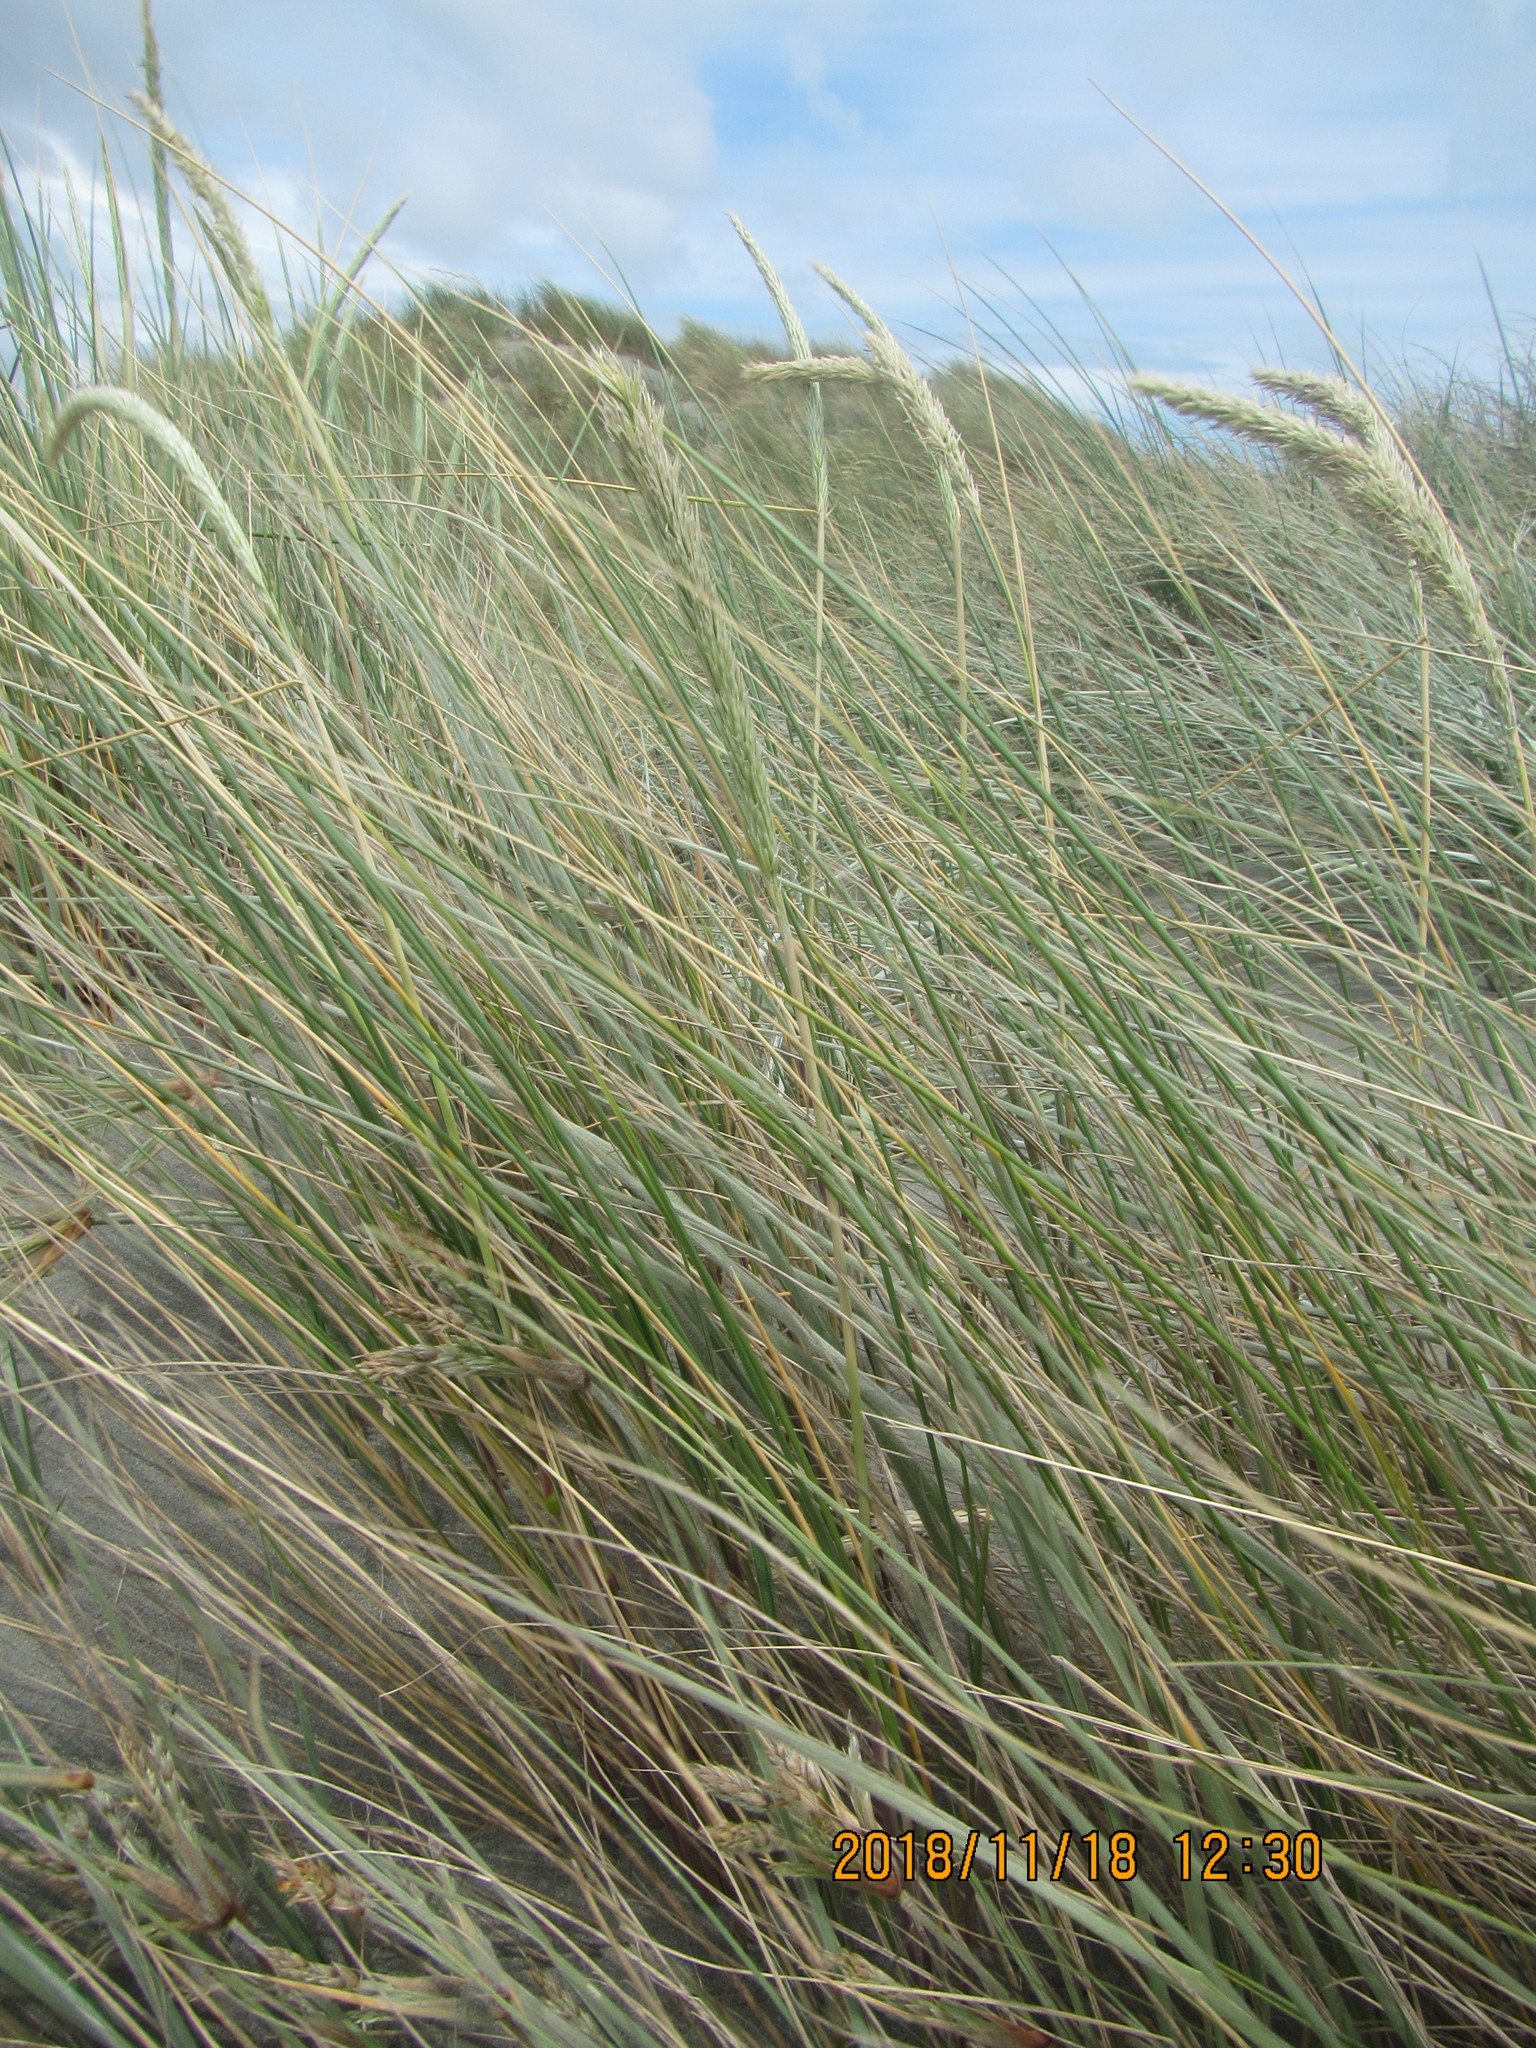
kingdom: Plantae
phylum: Tracheophyta
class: Liliopsida
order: Poales
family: Poaceae
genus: Calamagrostis
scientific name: Calamagrostis arenaria
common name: European beachgrass
